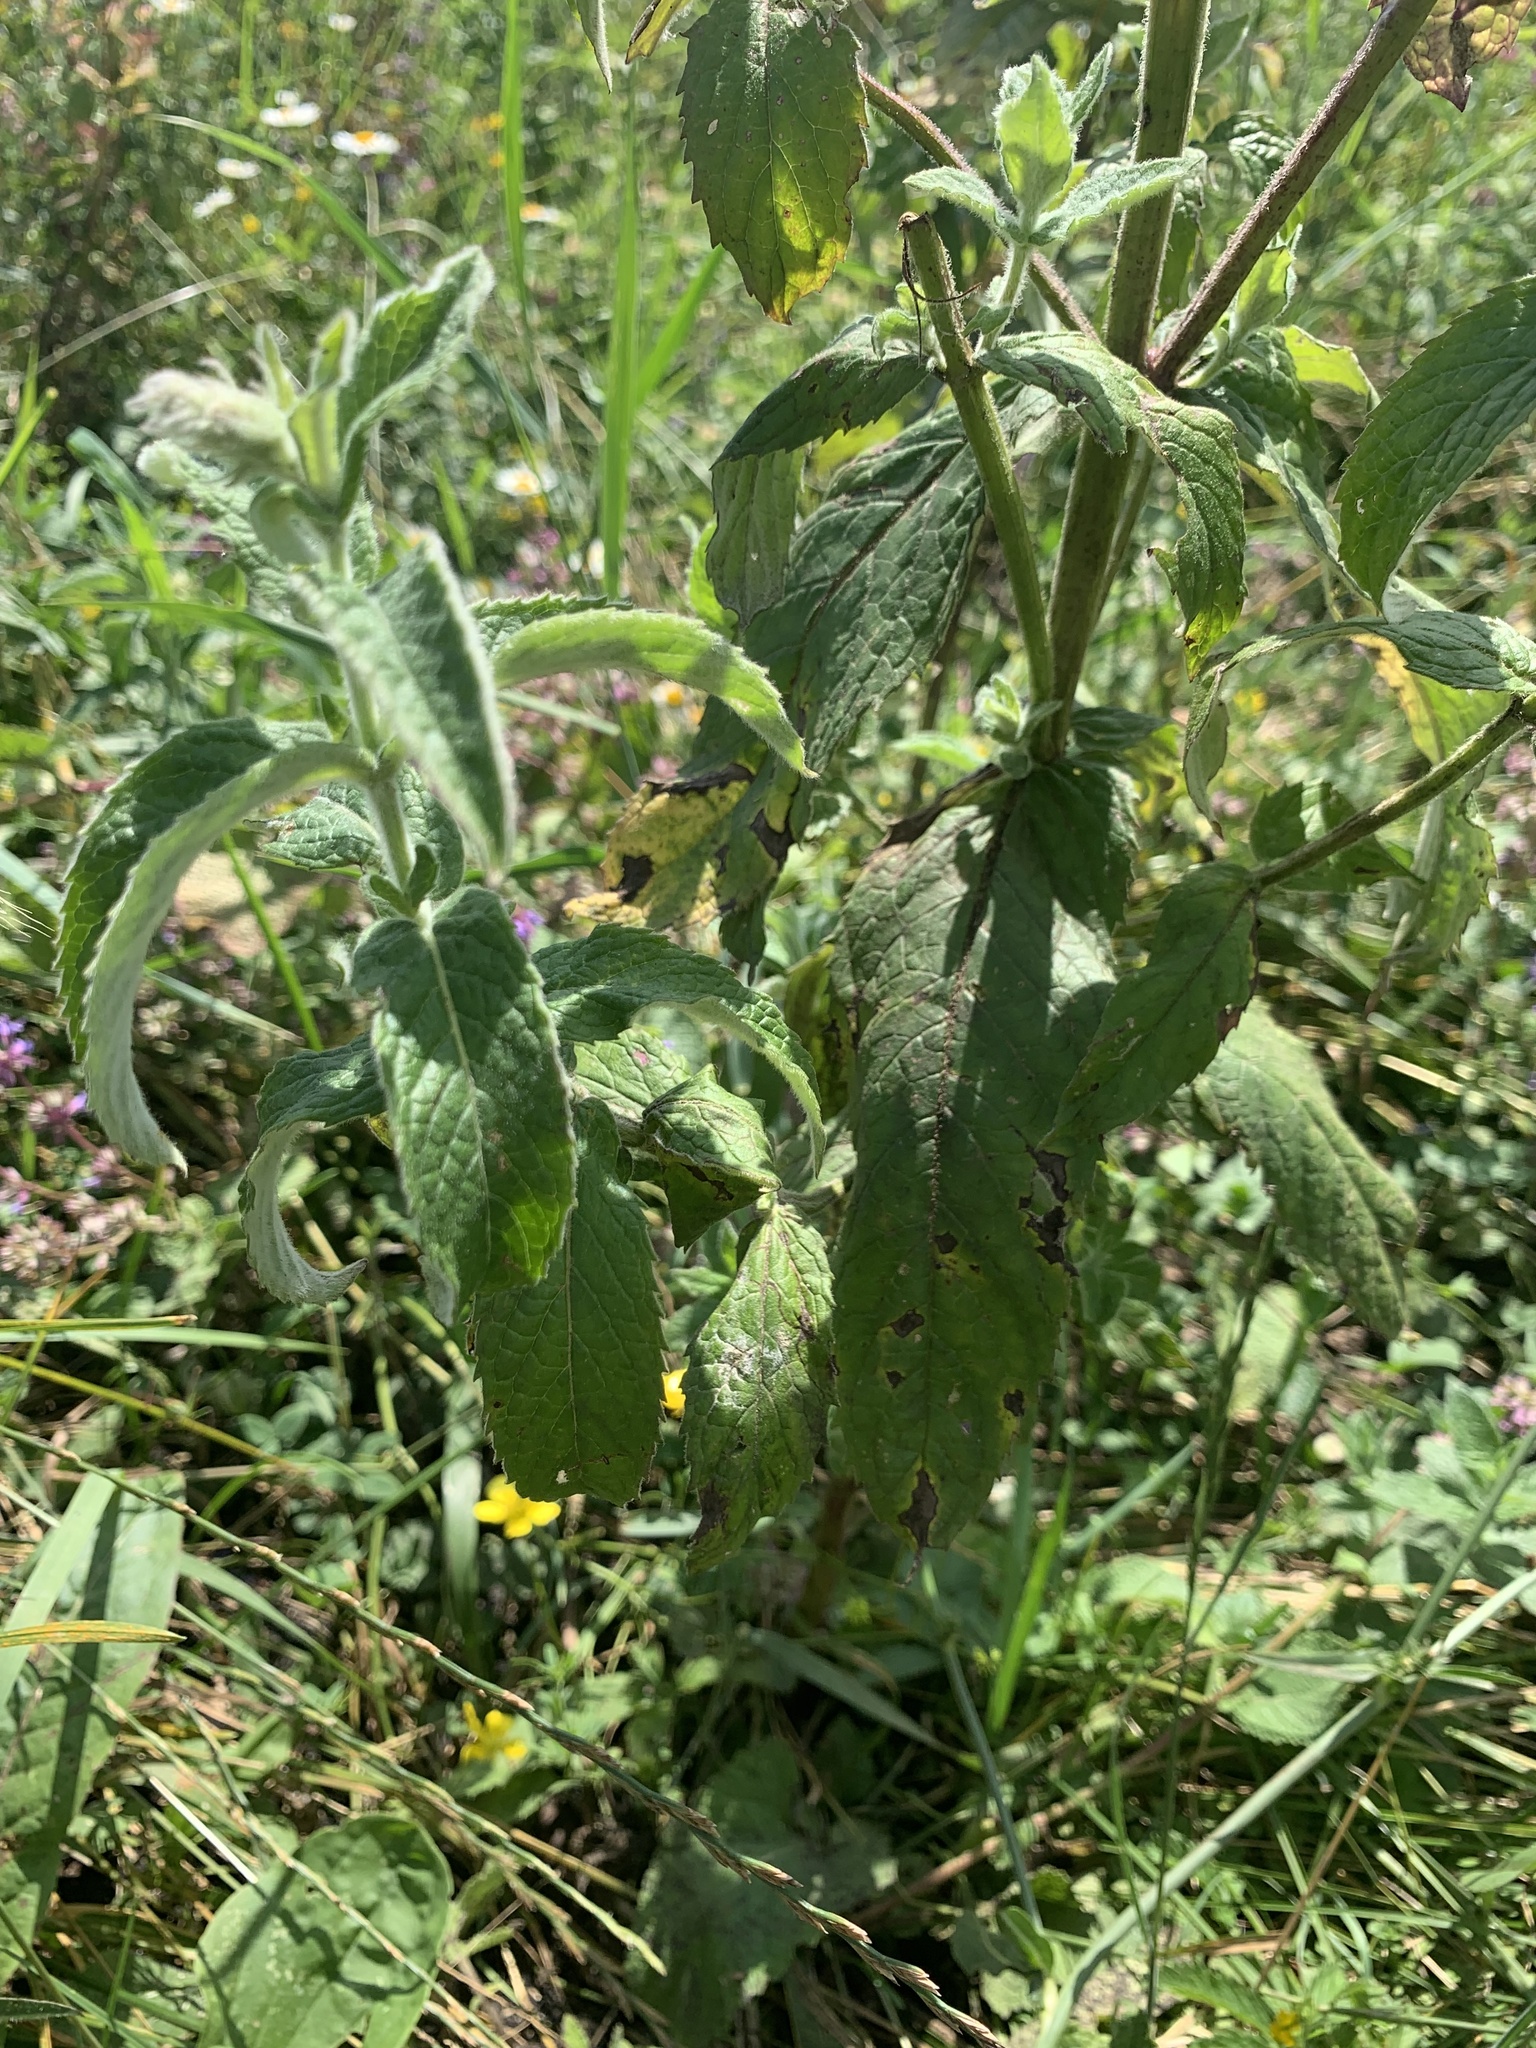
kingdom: Plantae
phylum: Tracheophyta
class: Magnoliopsida
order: Lamiales
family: Lamiaceae
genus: Mentha
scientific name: Mentha longifolia
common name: Horse mint
